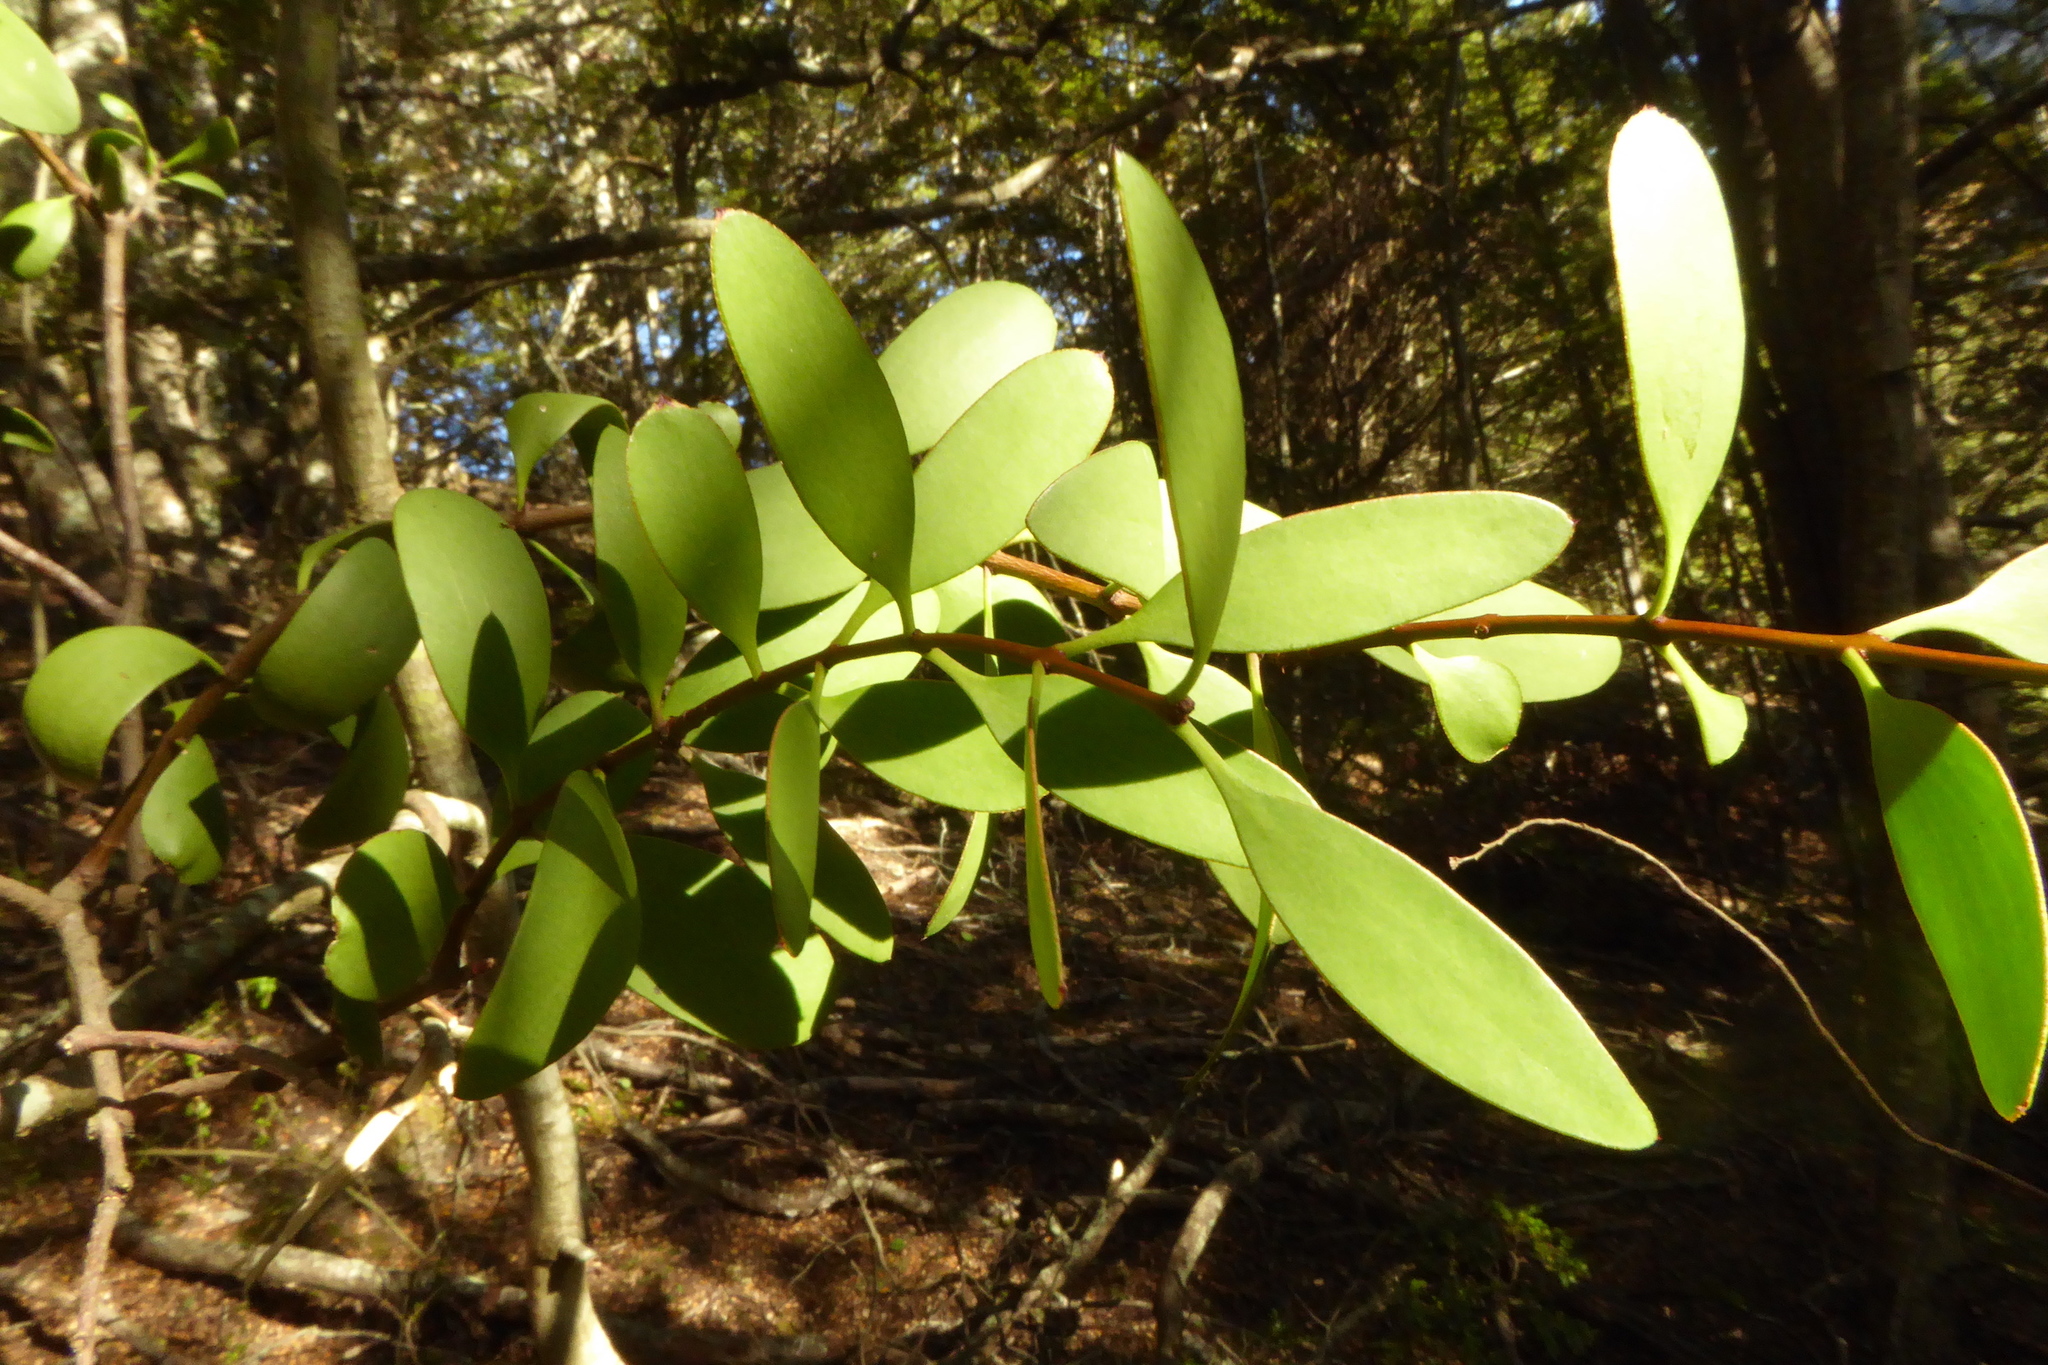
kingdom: Plantae
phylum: Tracheophyta
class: Magnoliopsida
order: Santalales
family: Loranthaceae
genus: Alepis
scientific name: Alepis flavida
